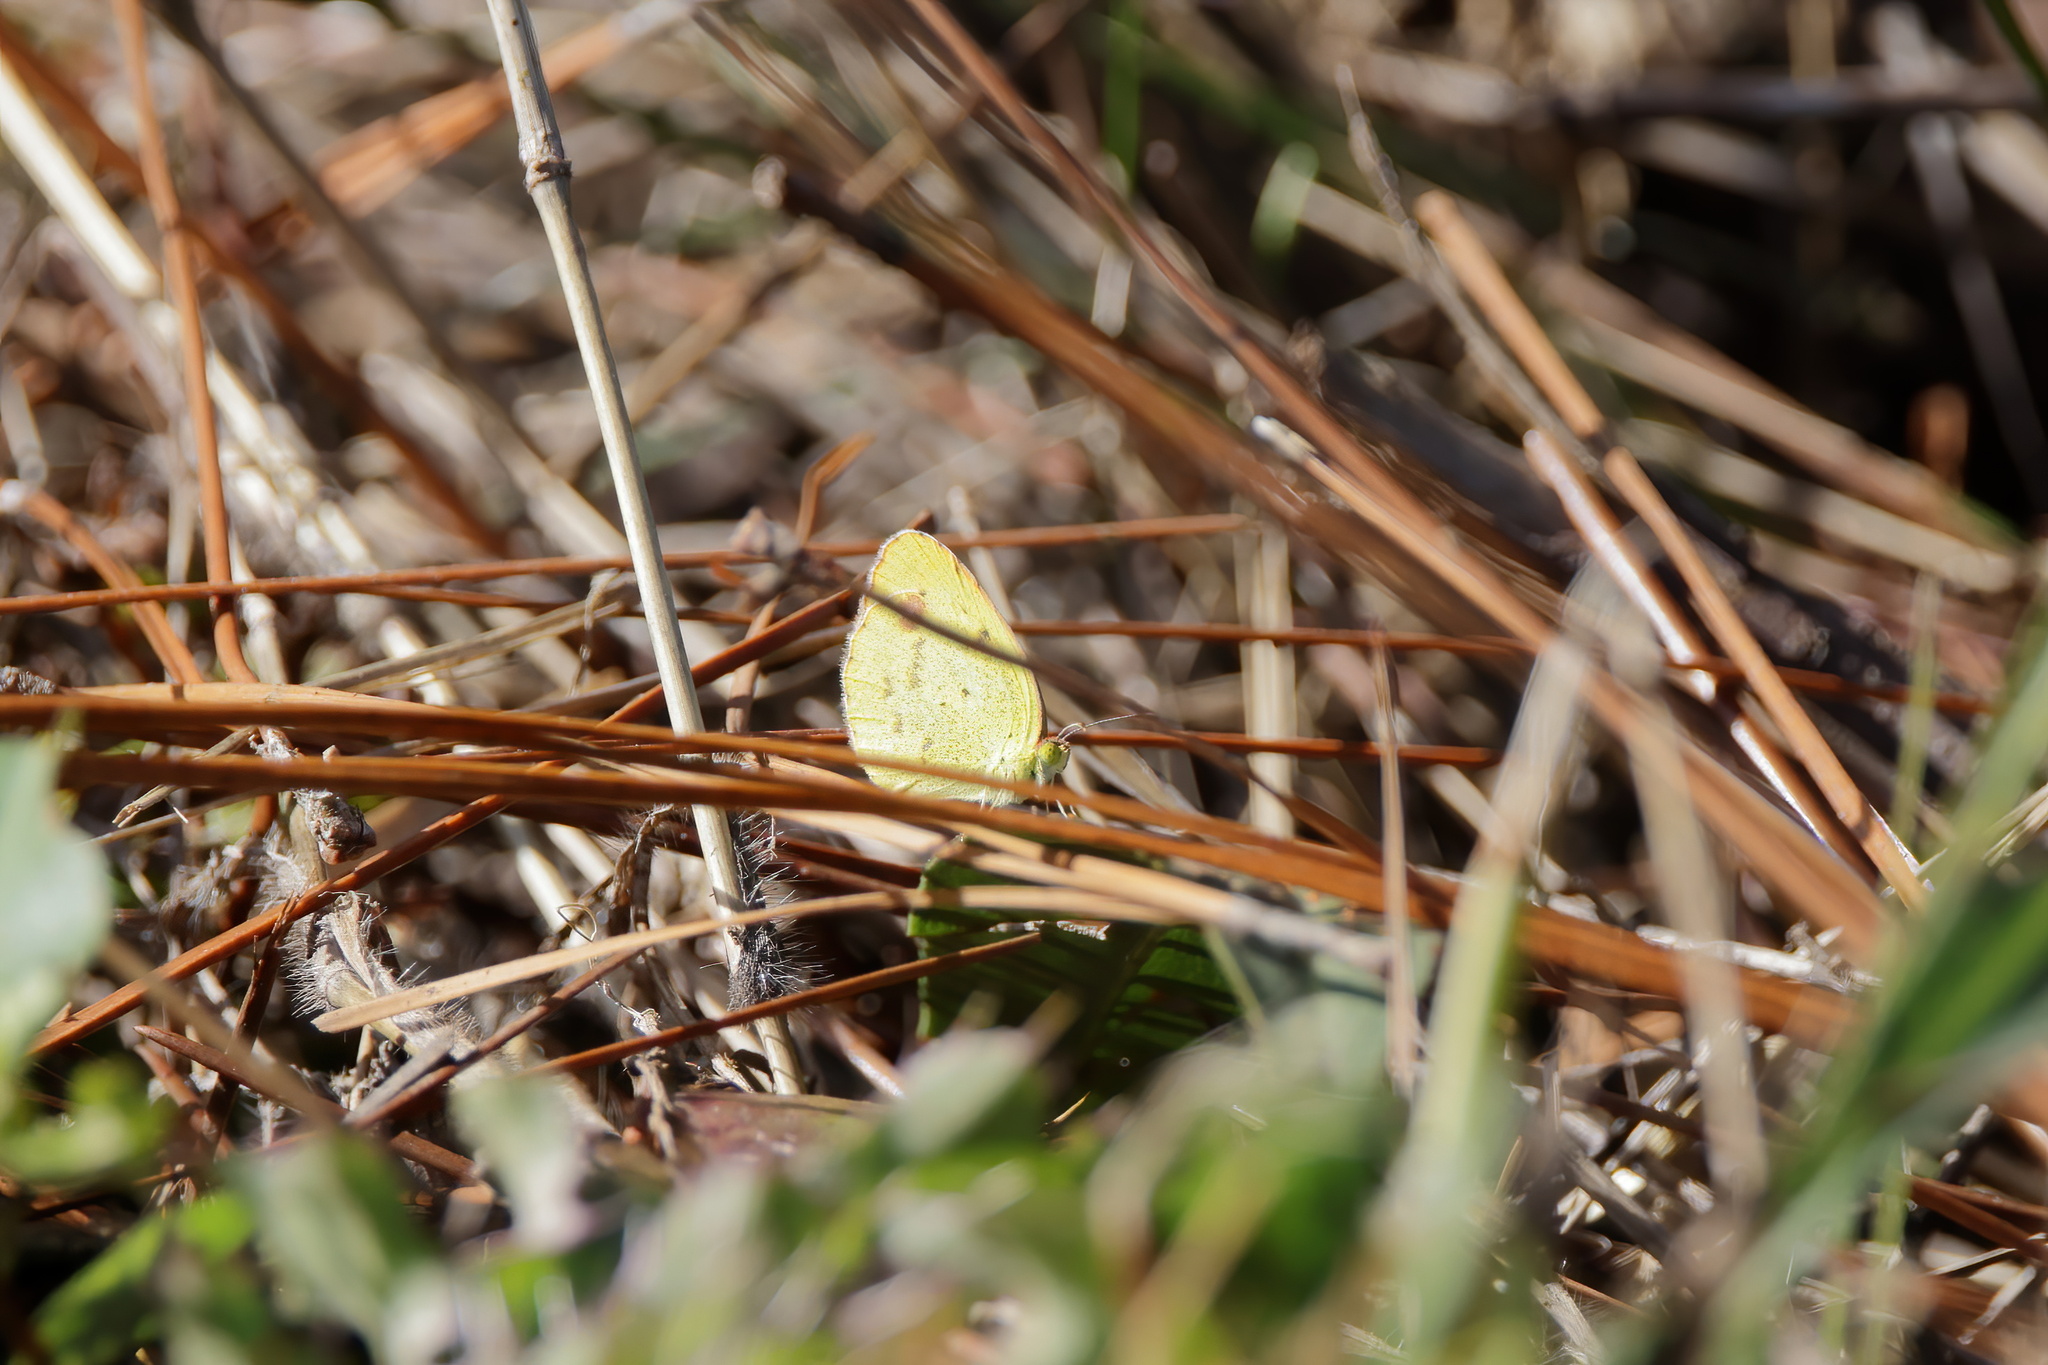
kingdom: Animalia
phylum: Arthropoda
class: Insecta
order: Lepidoptera
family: Pieridae
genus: Pyrisitia
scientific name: Pyrisitia lisa
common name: Little yellow
